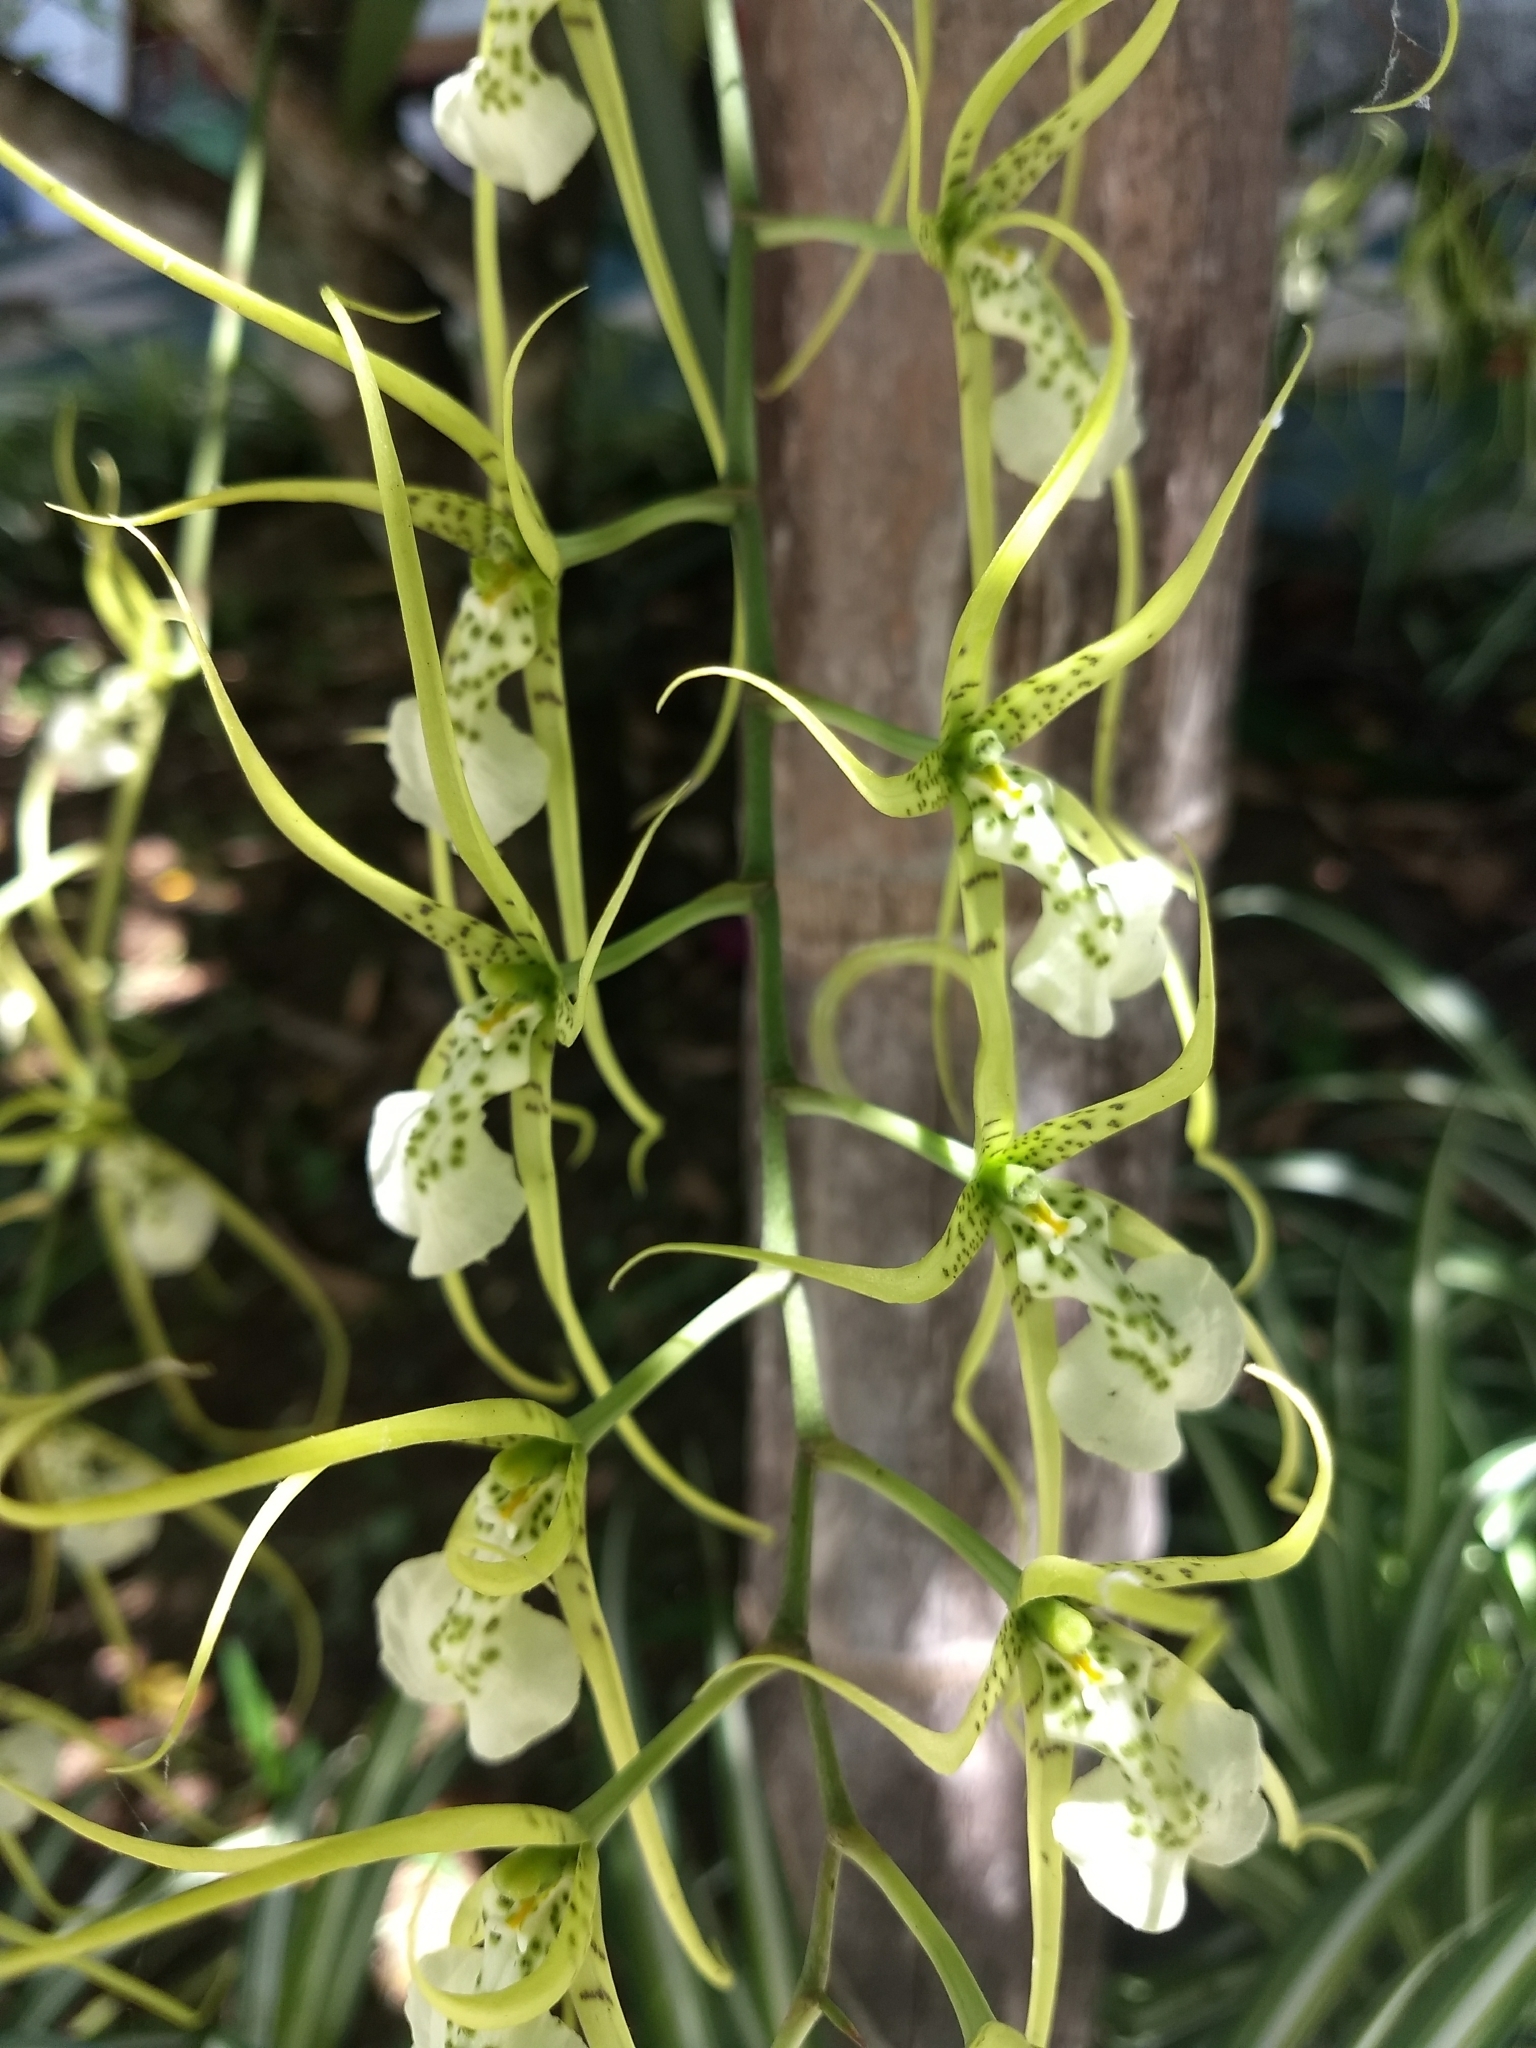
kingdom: Plantae
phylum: Tracheophyta
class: Liliopsida
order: Asparagales
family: Orchidaceae
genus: Brassia
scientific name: Brassia verrucosa
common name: Warty brassia
